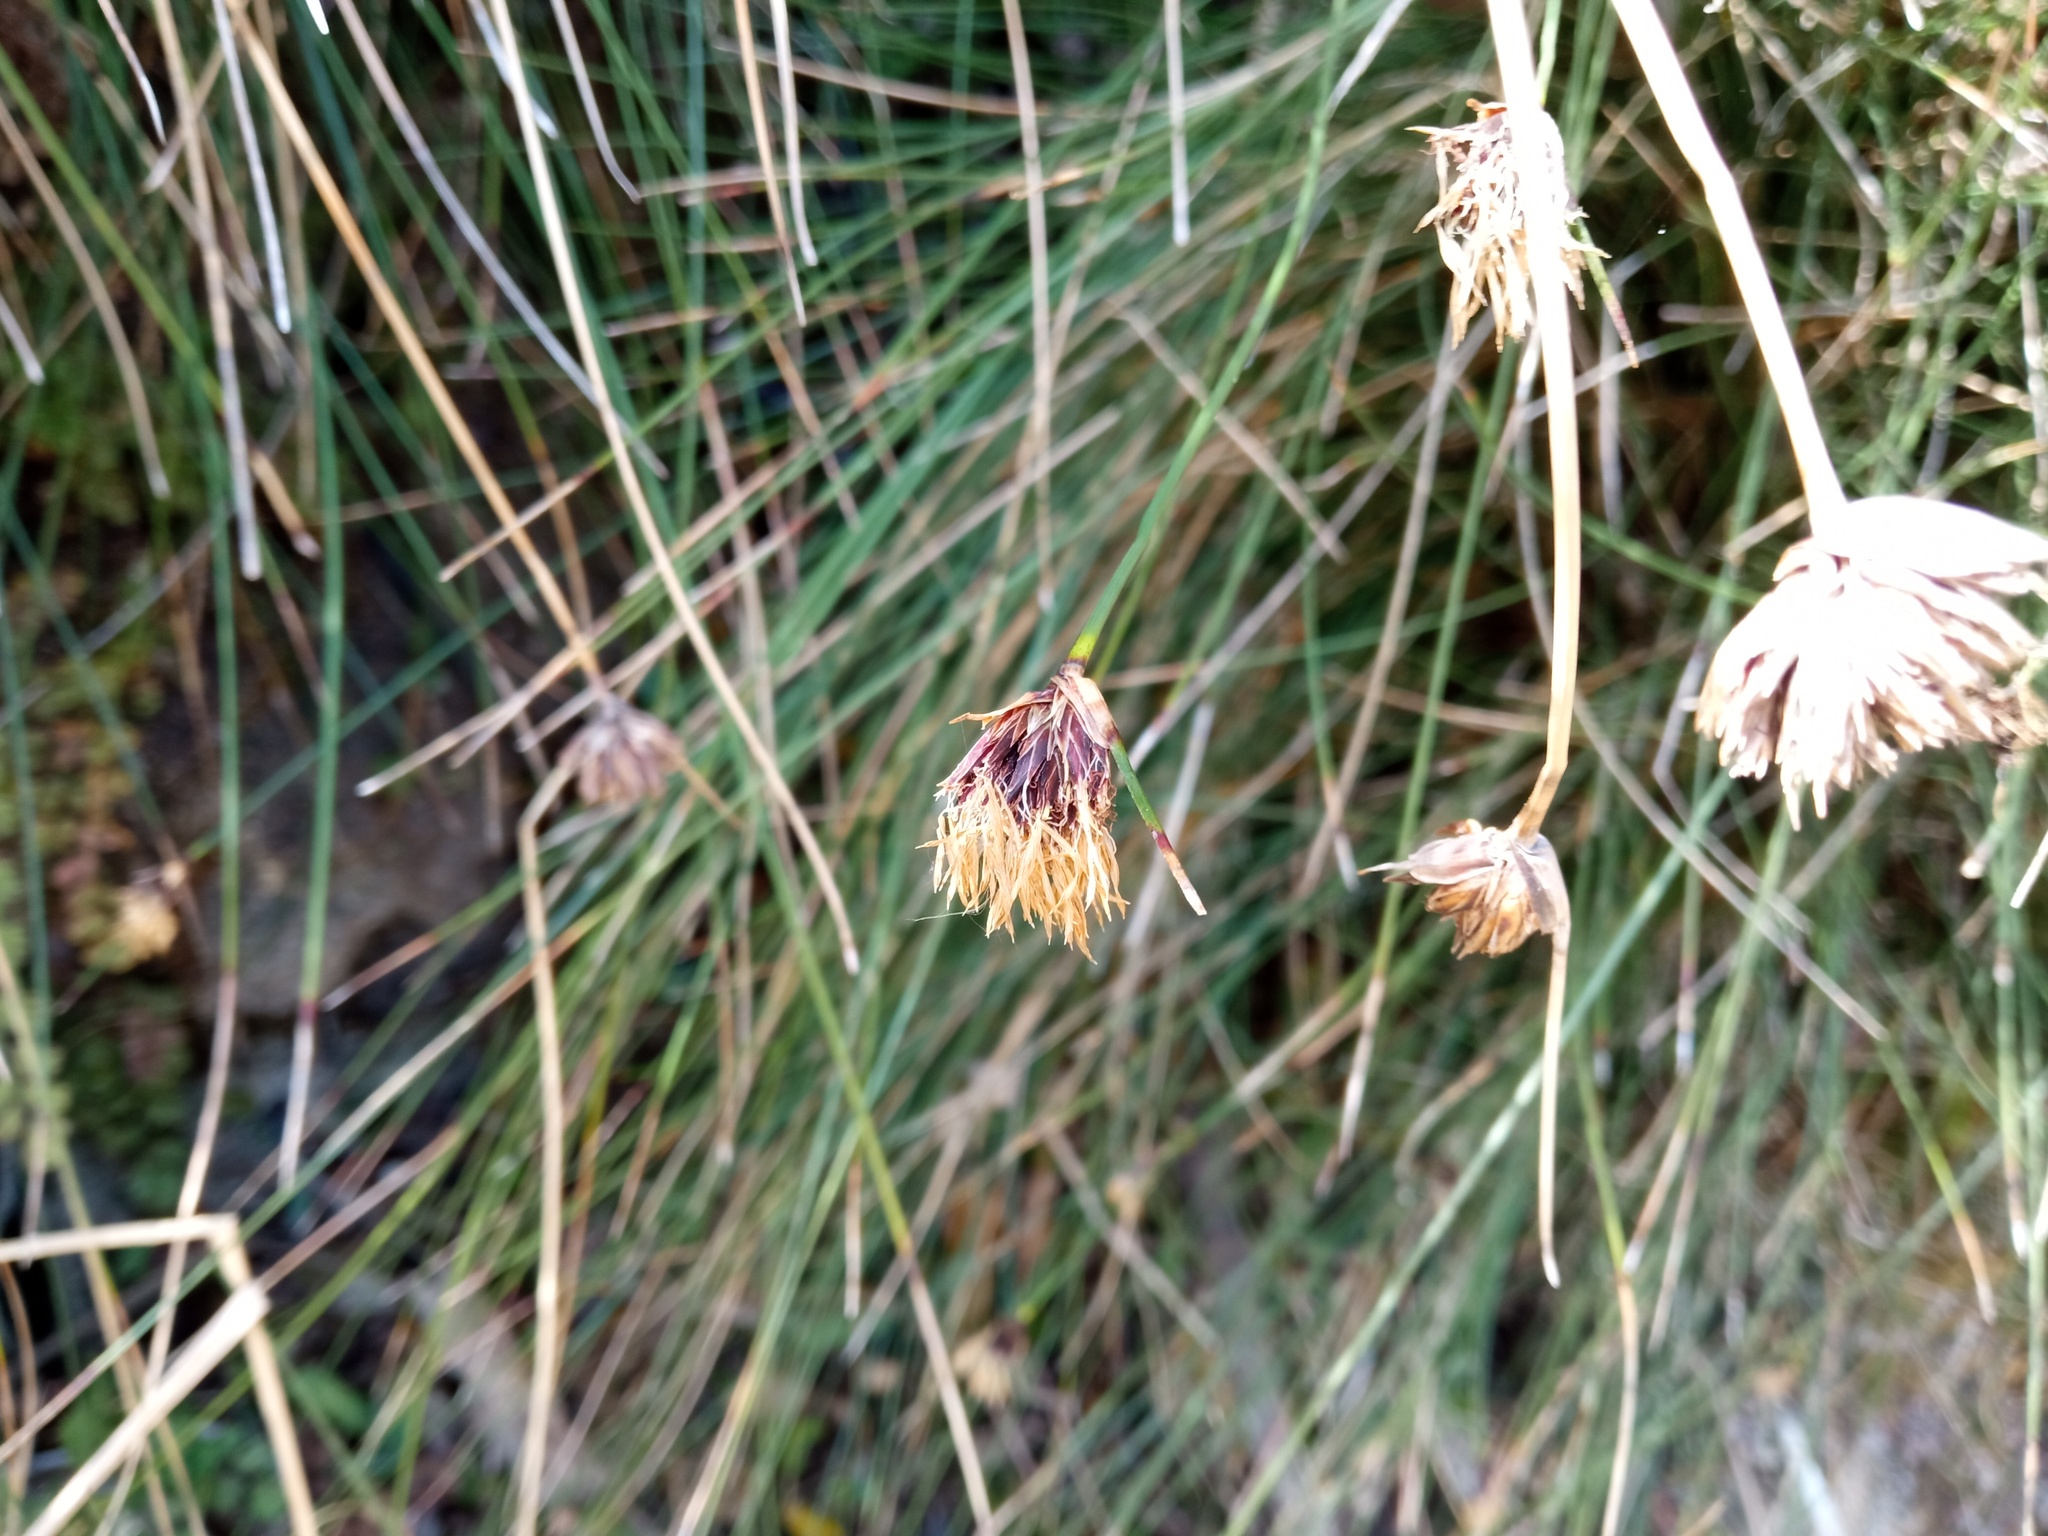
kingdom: Plantae
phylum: Tracheophyta
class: Liliopsida
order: Poales
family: Cyperaceae
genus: Schoenus
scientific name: Schoenus nigricans
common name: Black bog-rush
